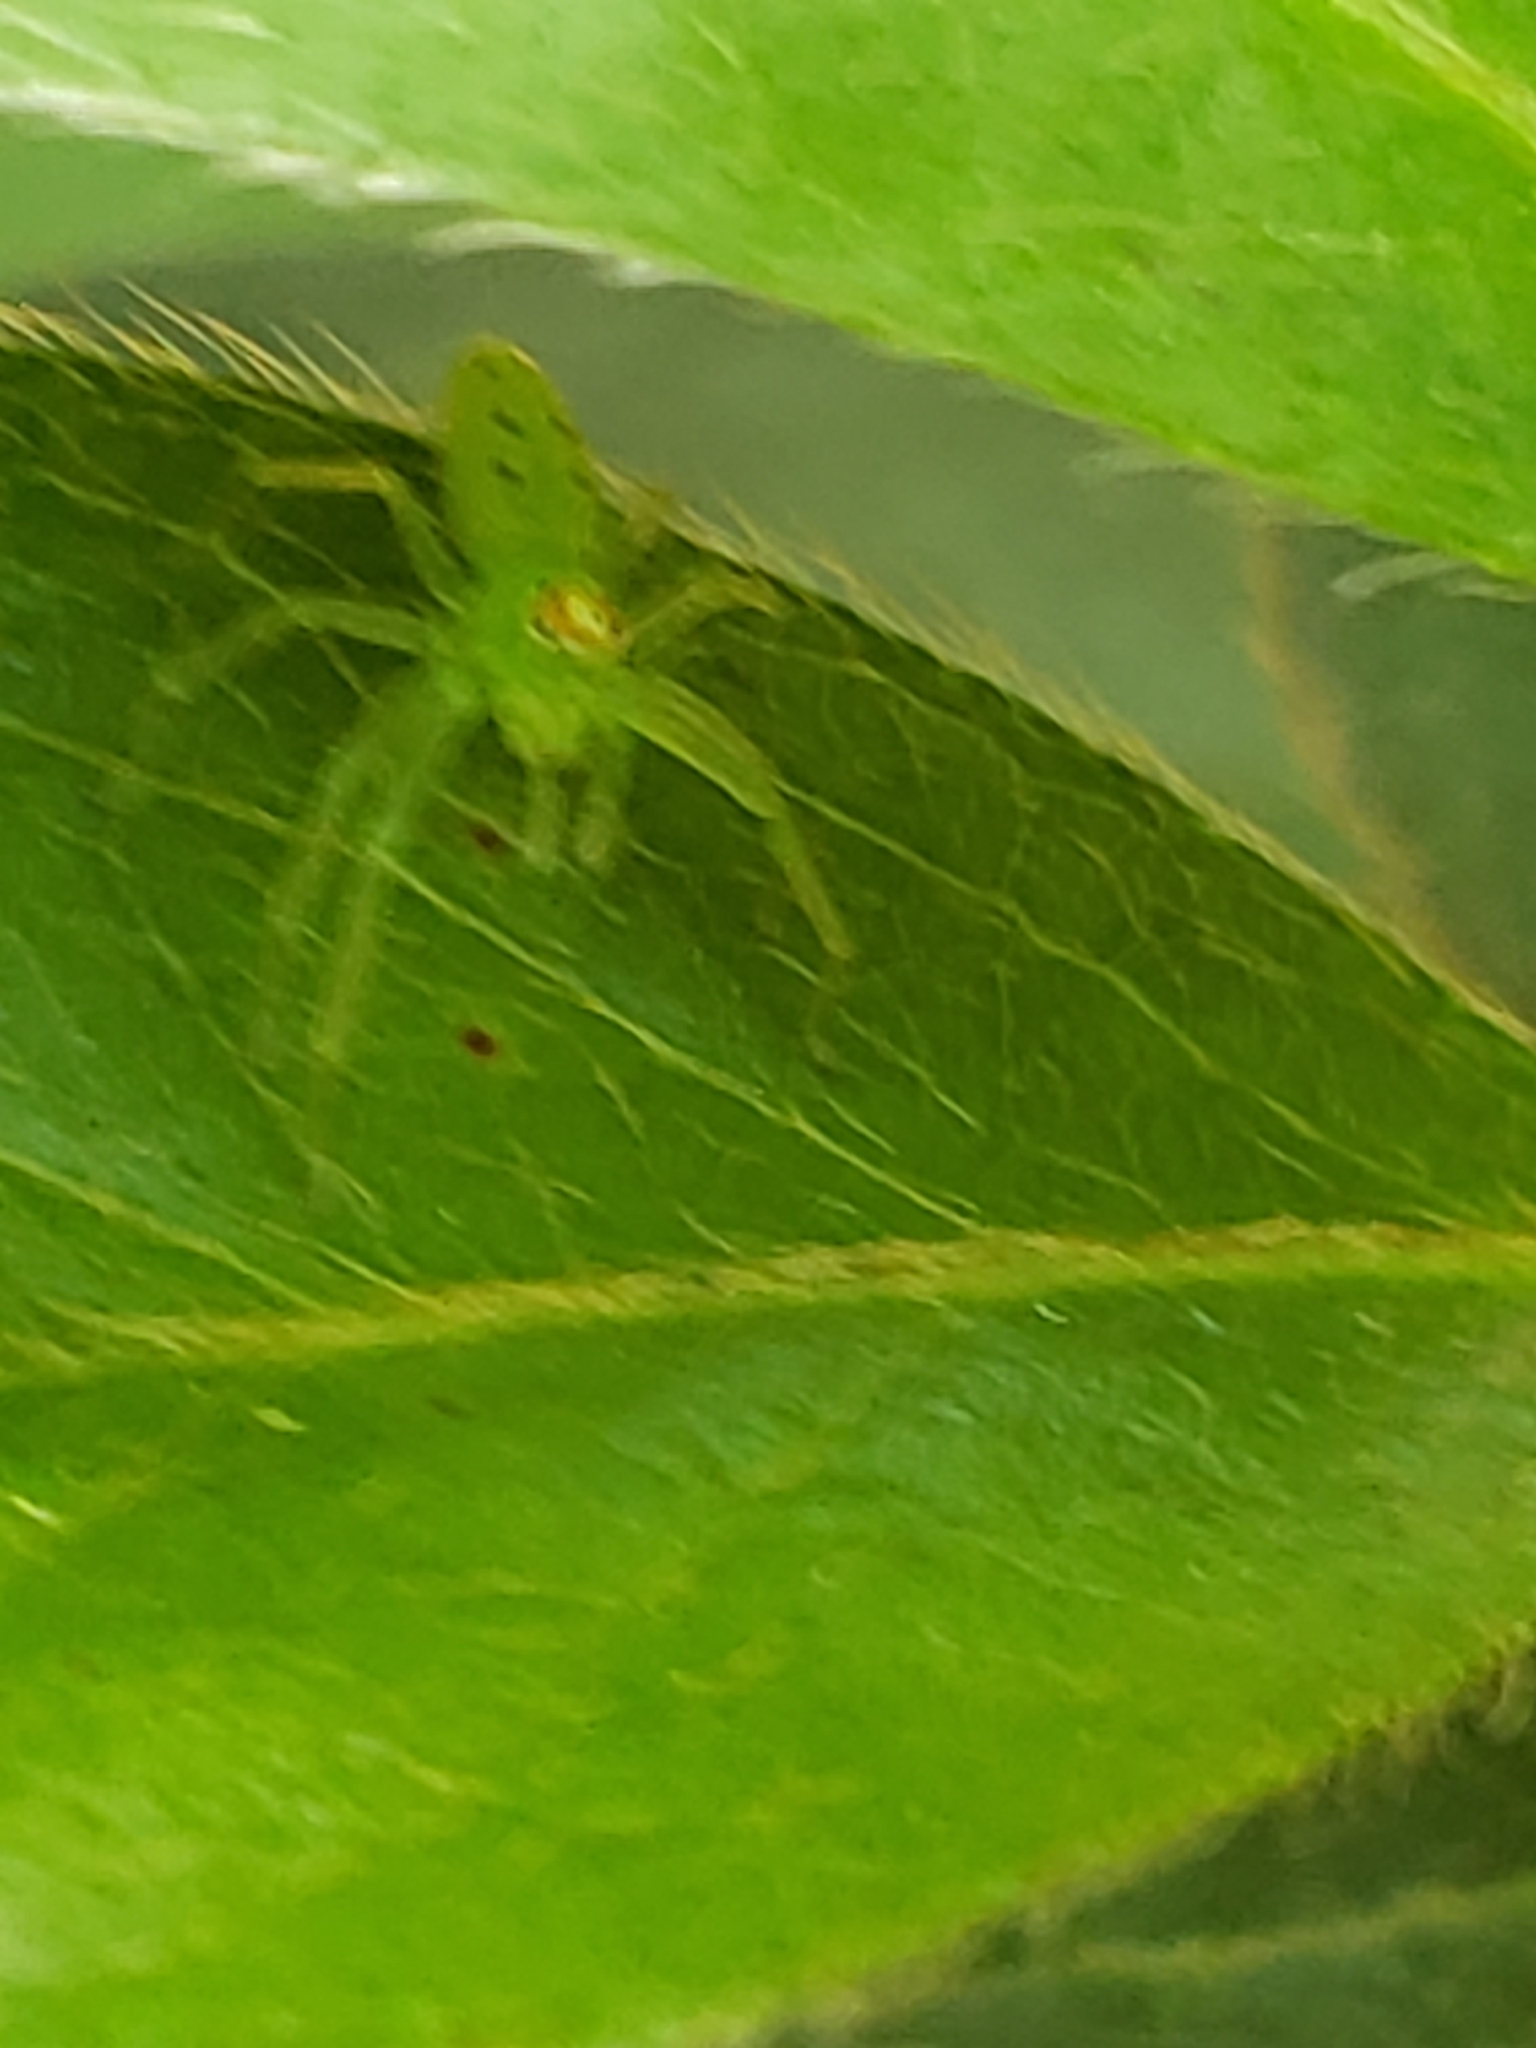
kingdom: Animalia
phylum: Arthropoda
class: Arachnida
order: Araneae
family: Salticidae
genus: Lyssomanes
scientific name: Lyssomanes viridis
